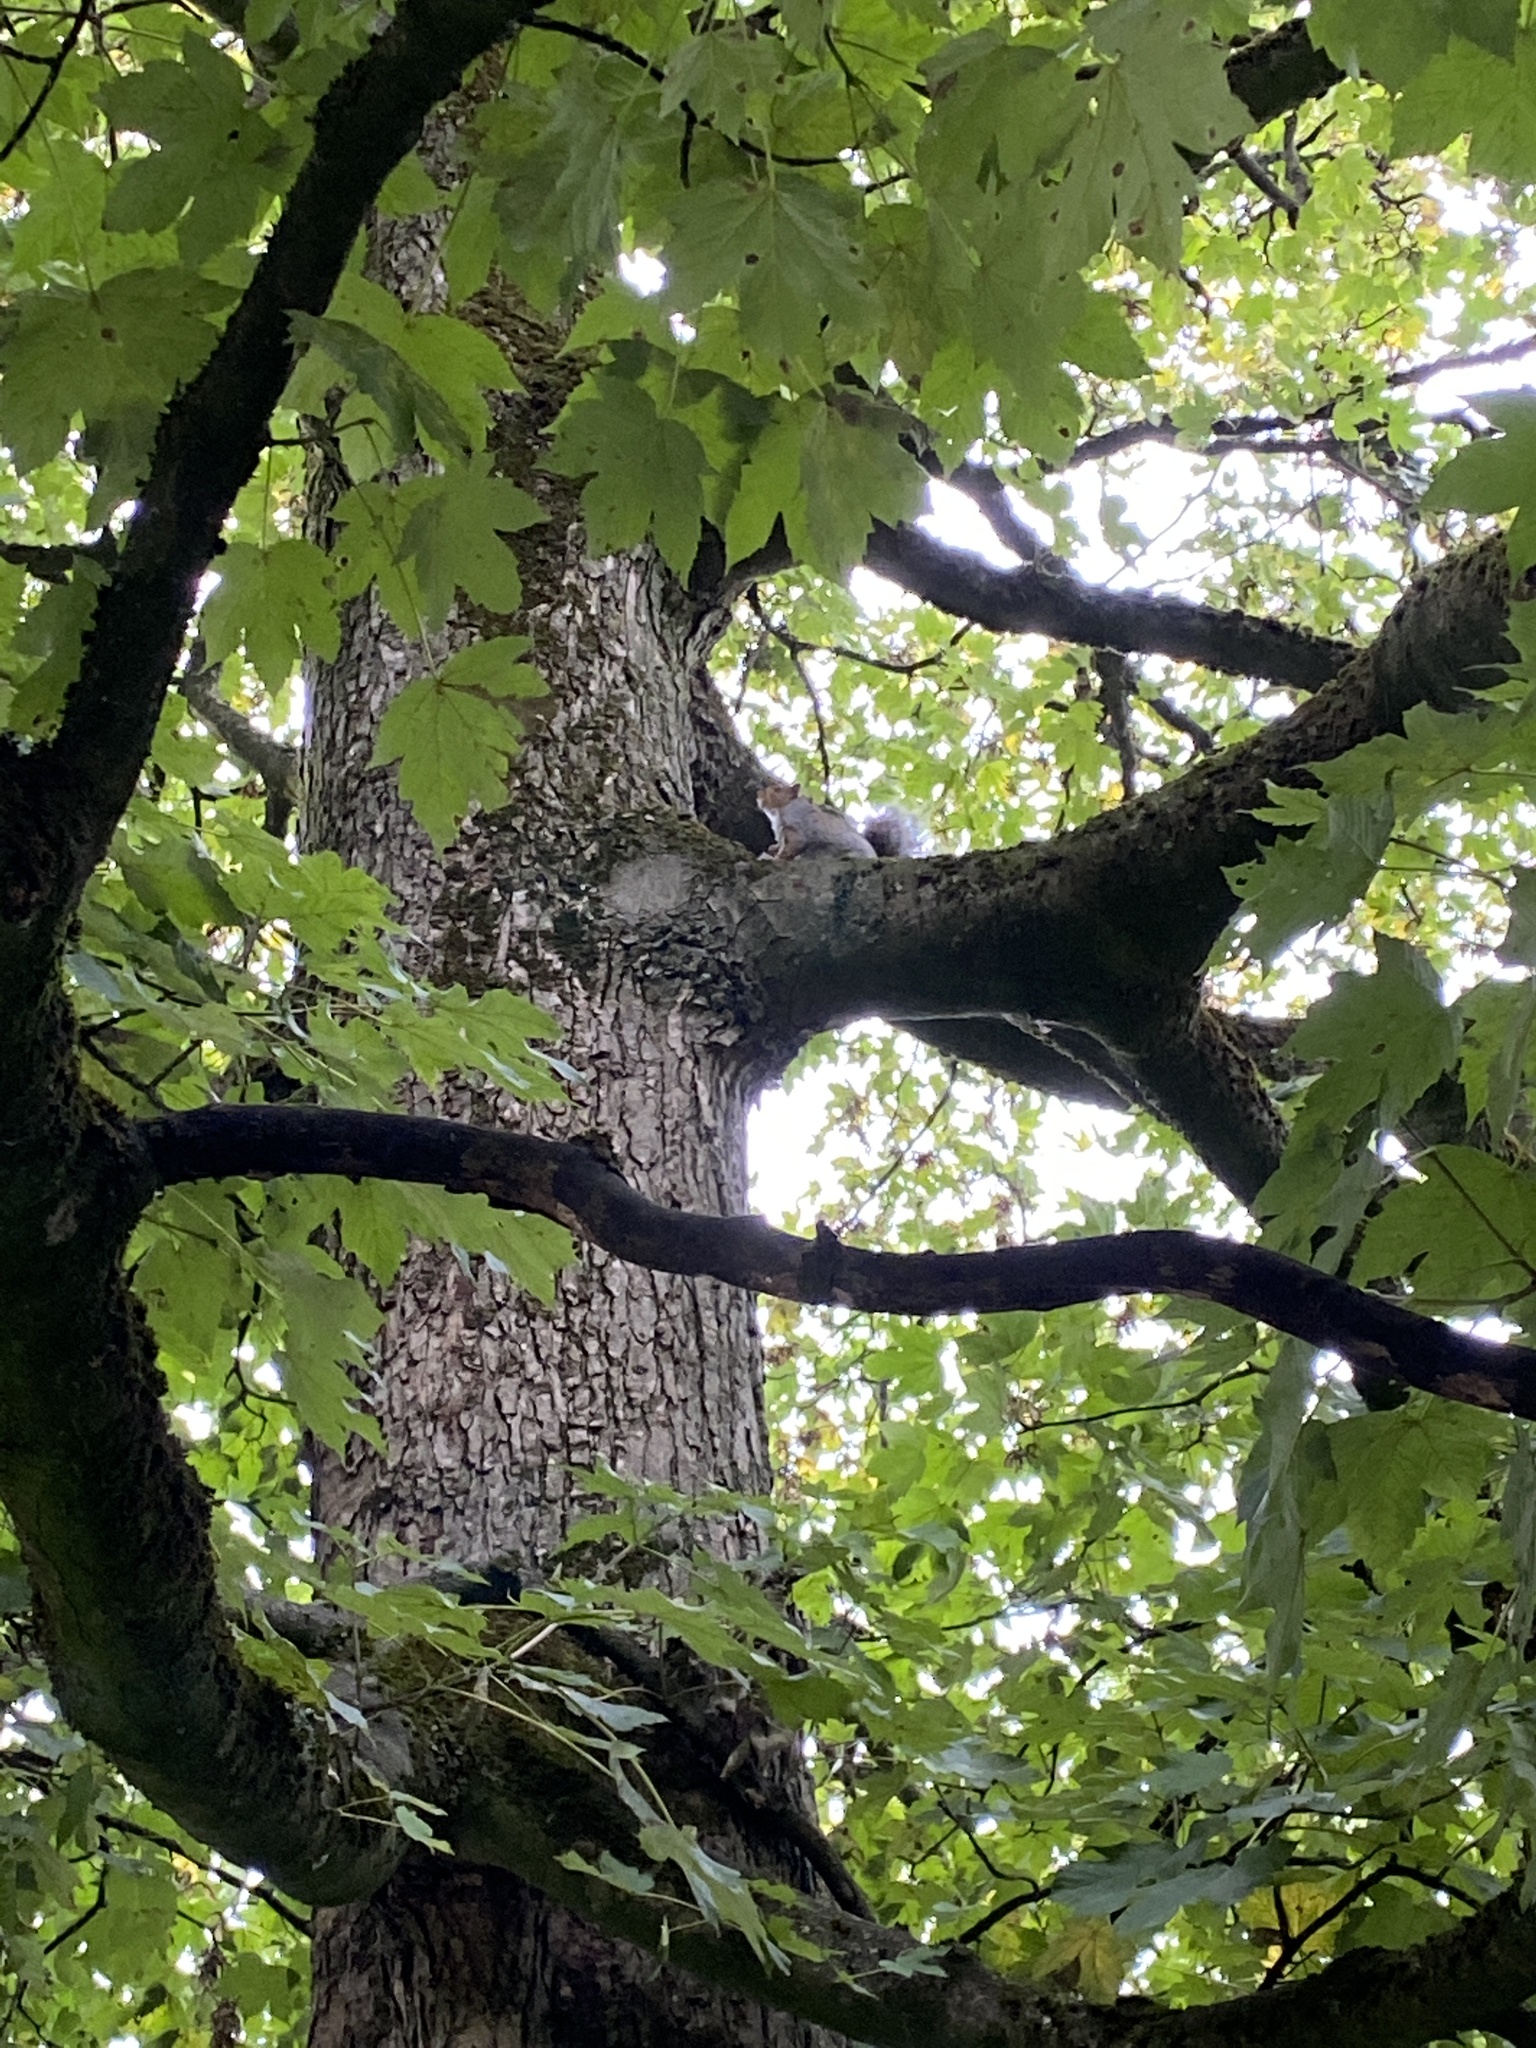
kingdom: Animalia
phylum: Chordata
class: Mammalia
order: Rodentia
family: Sciuridae
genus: Sciurus
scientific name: Sciurus carolinensis
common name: Eastern gray squirrel
